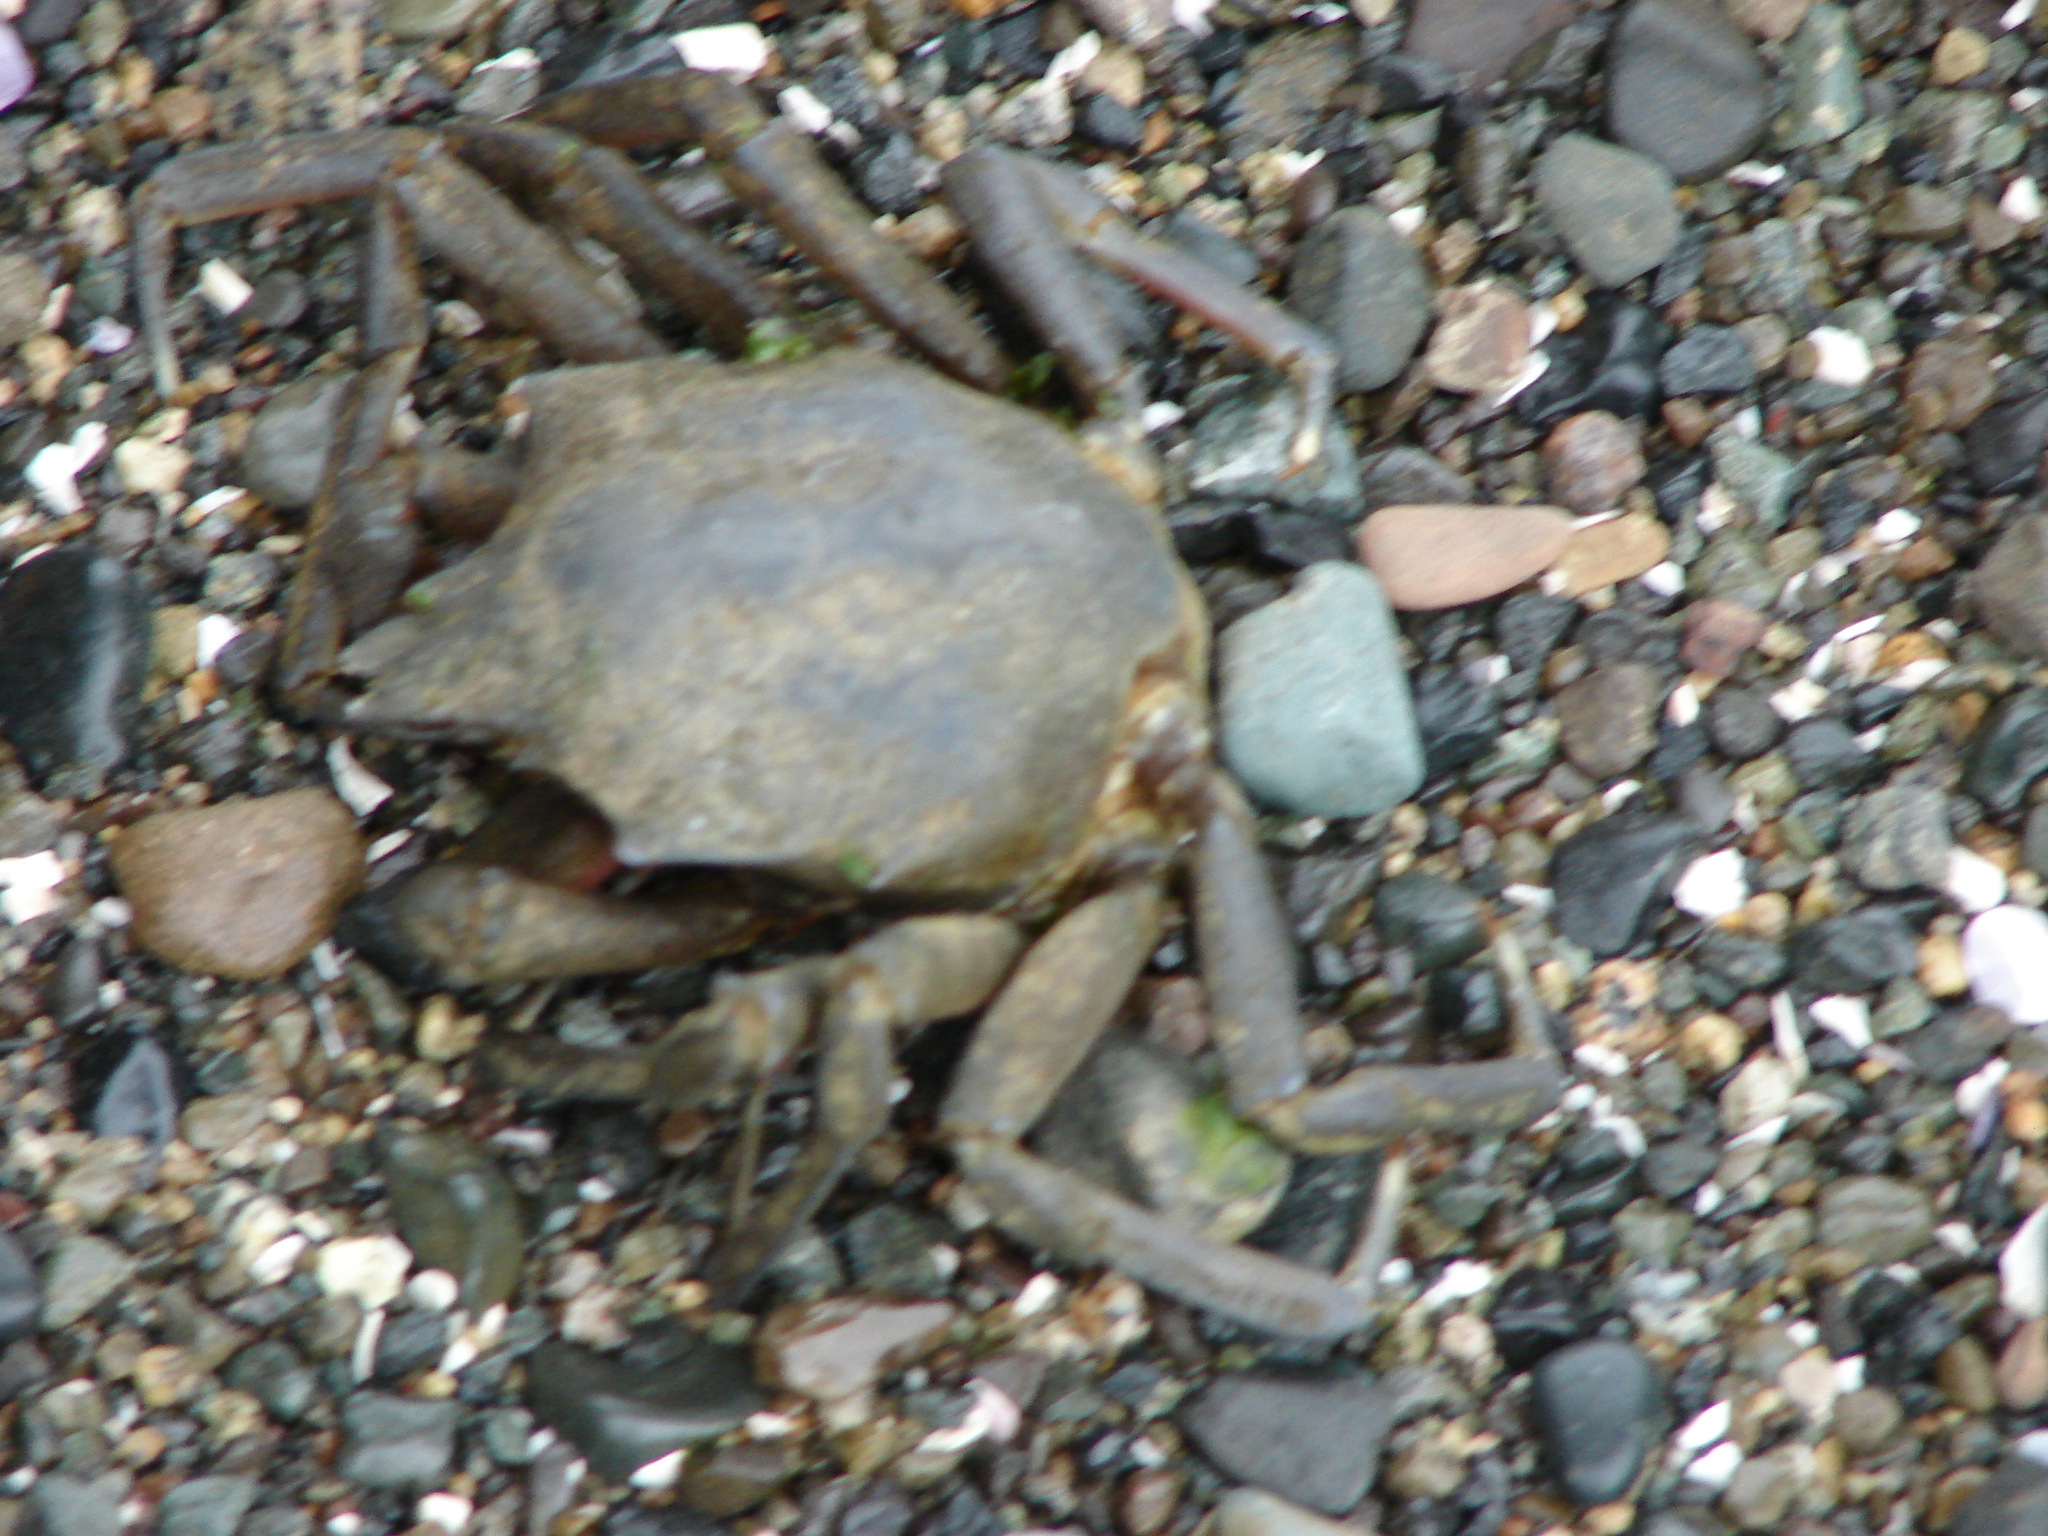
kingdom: Animalia
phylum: Arthropoda
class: Malacostraca
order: Decapoda
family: Epialtidae
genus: Pugettia
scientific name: Pugettia producta
